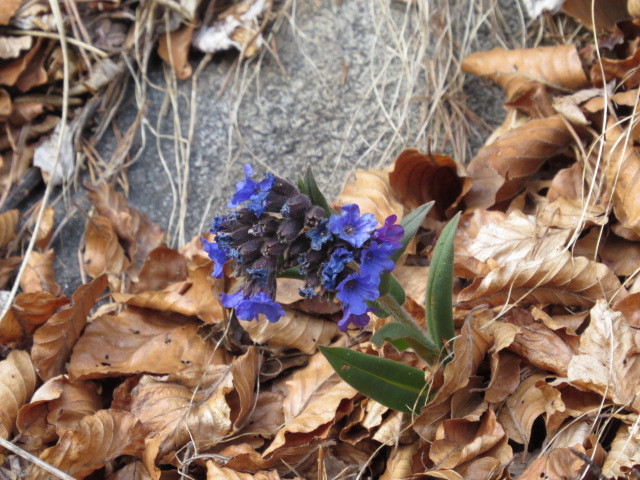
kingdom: Plantae
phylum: Tracheophyta
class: Magnoliopsida
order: Boraginales
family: Boraginaceae
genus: Pulmonaria
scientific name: Pulmonaria australis
